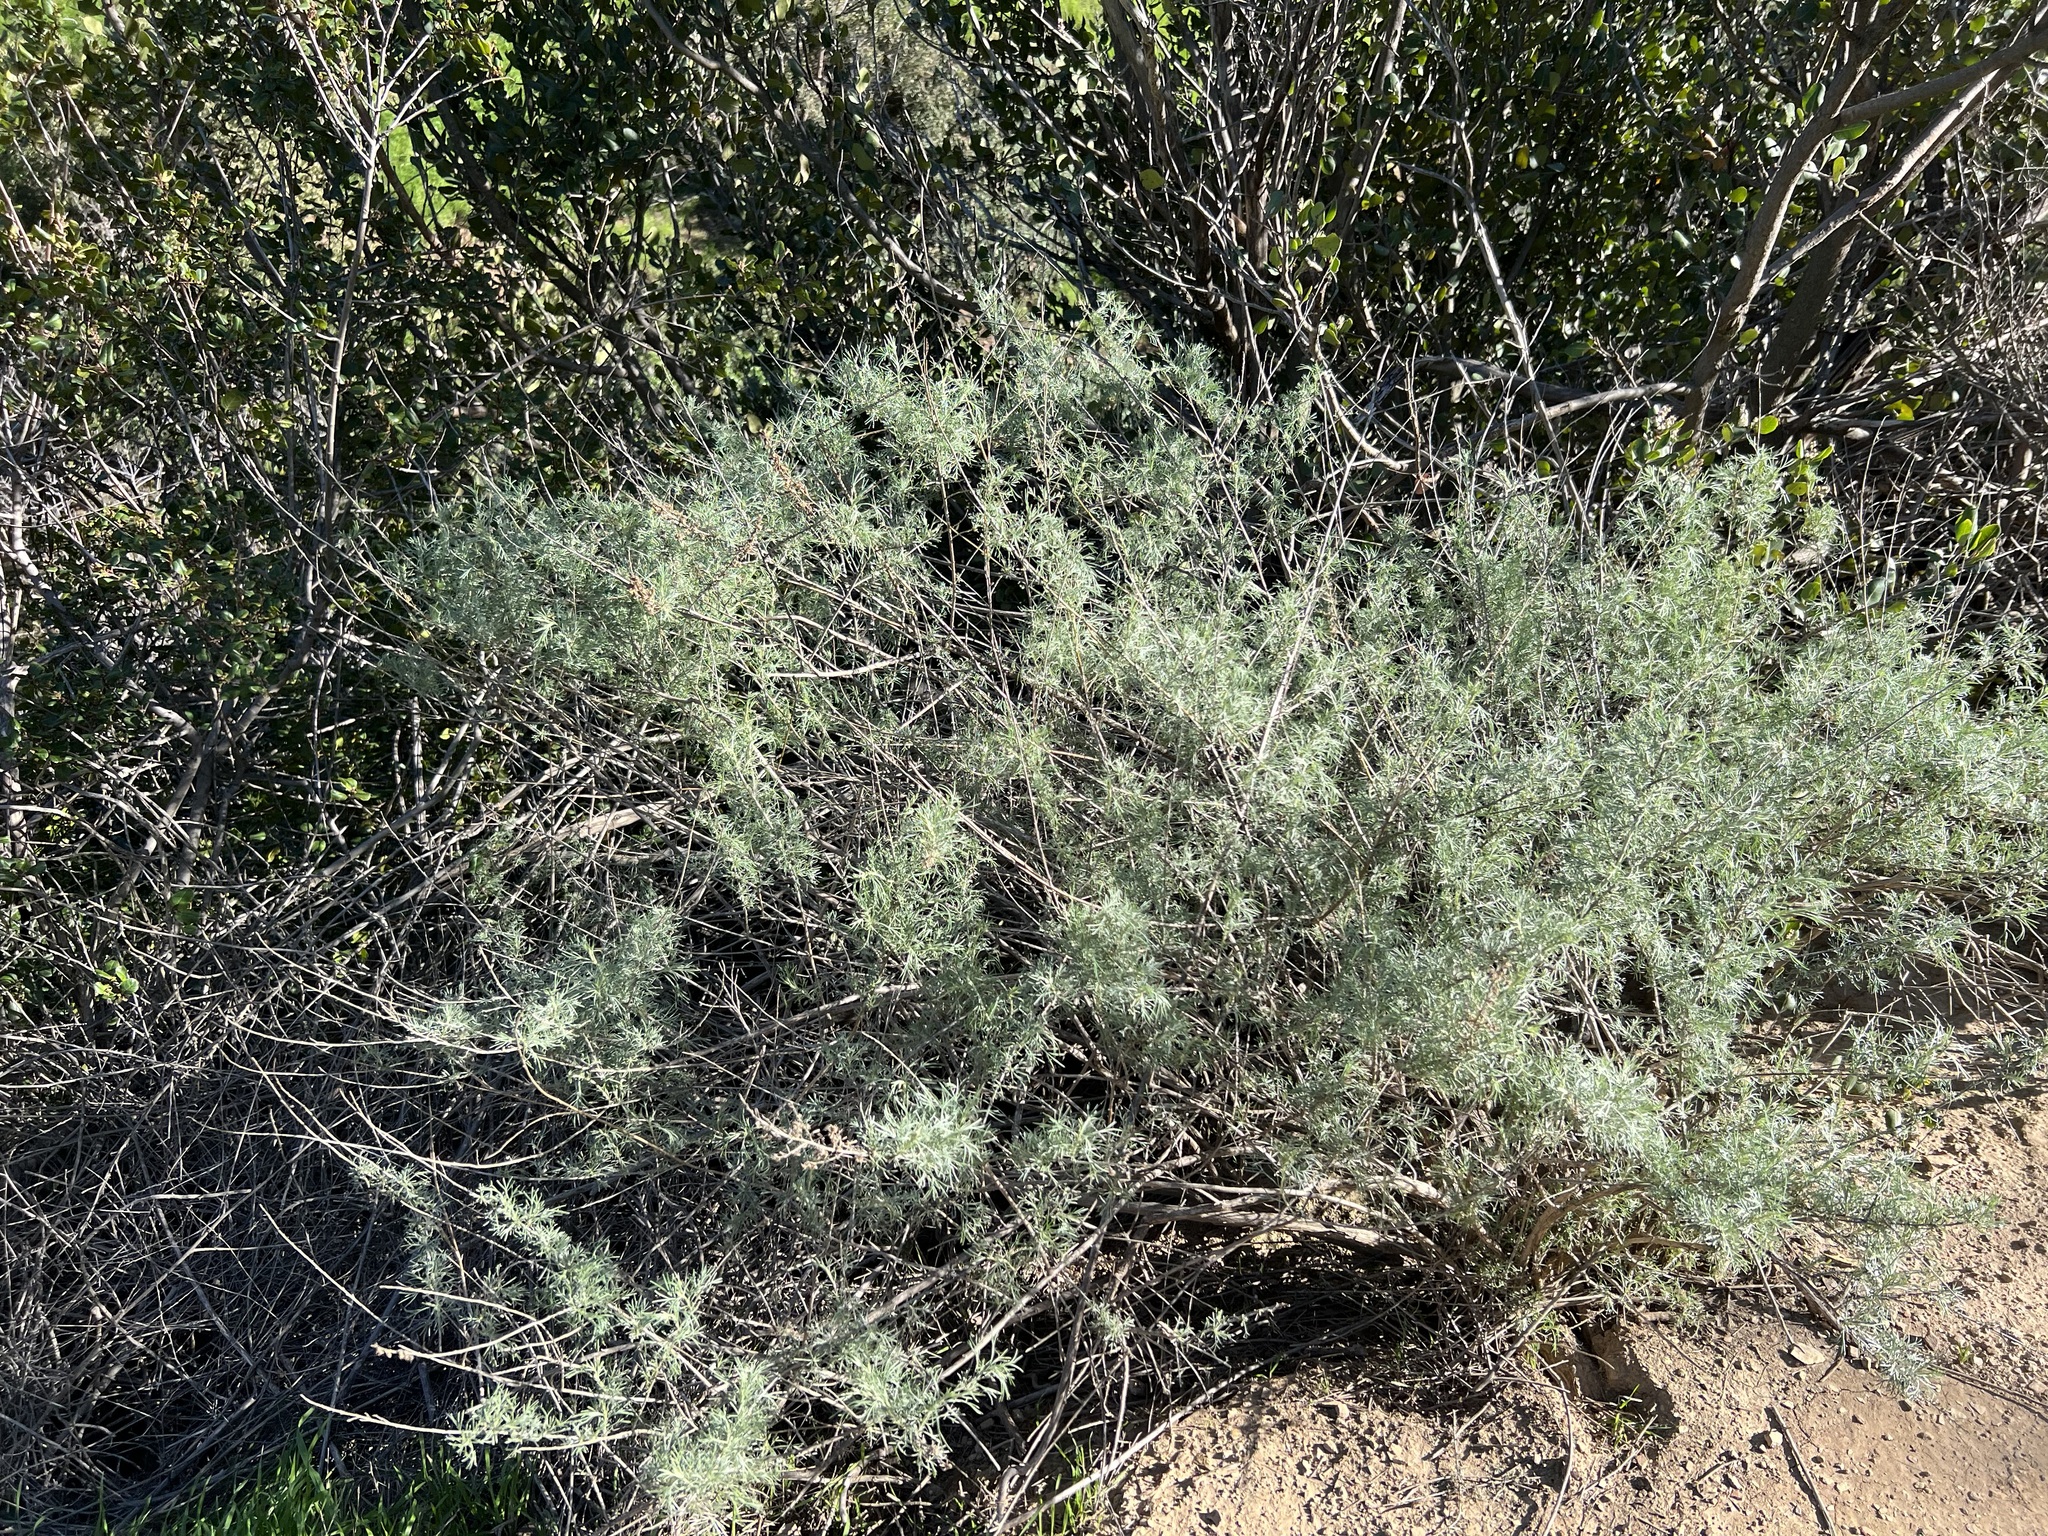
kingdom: Plantae
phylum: Tracheophyta
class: Magnoliopsida
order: Asterales
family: Asteraceae
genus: Artemisia
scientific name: Artemisia californica
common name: California sagebrush
